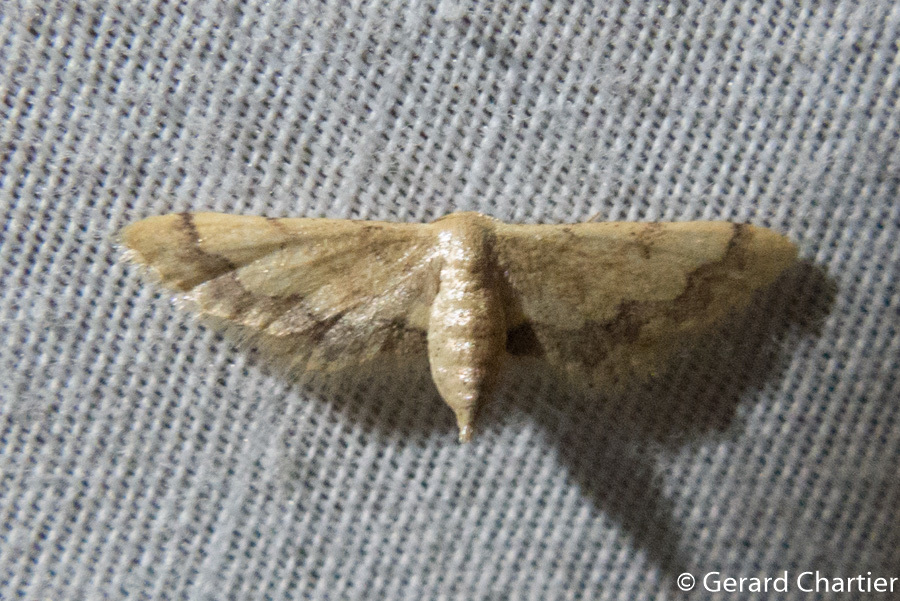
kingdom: Animalia
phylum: Arthropoda
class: Insecta
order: Lepidoptera
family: Geometridae
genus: Idaea
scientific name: Idaea violacea
